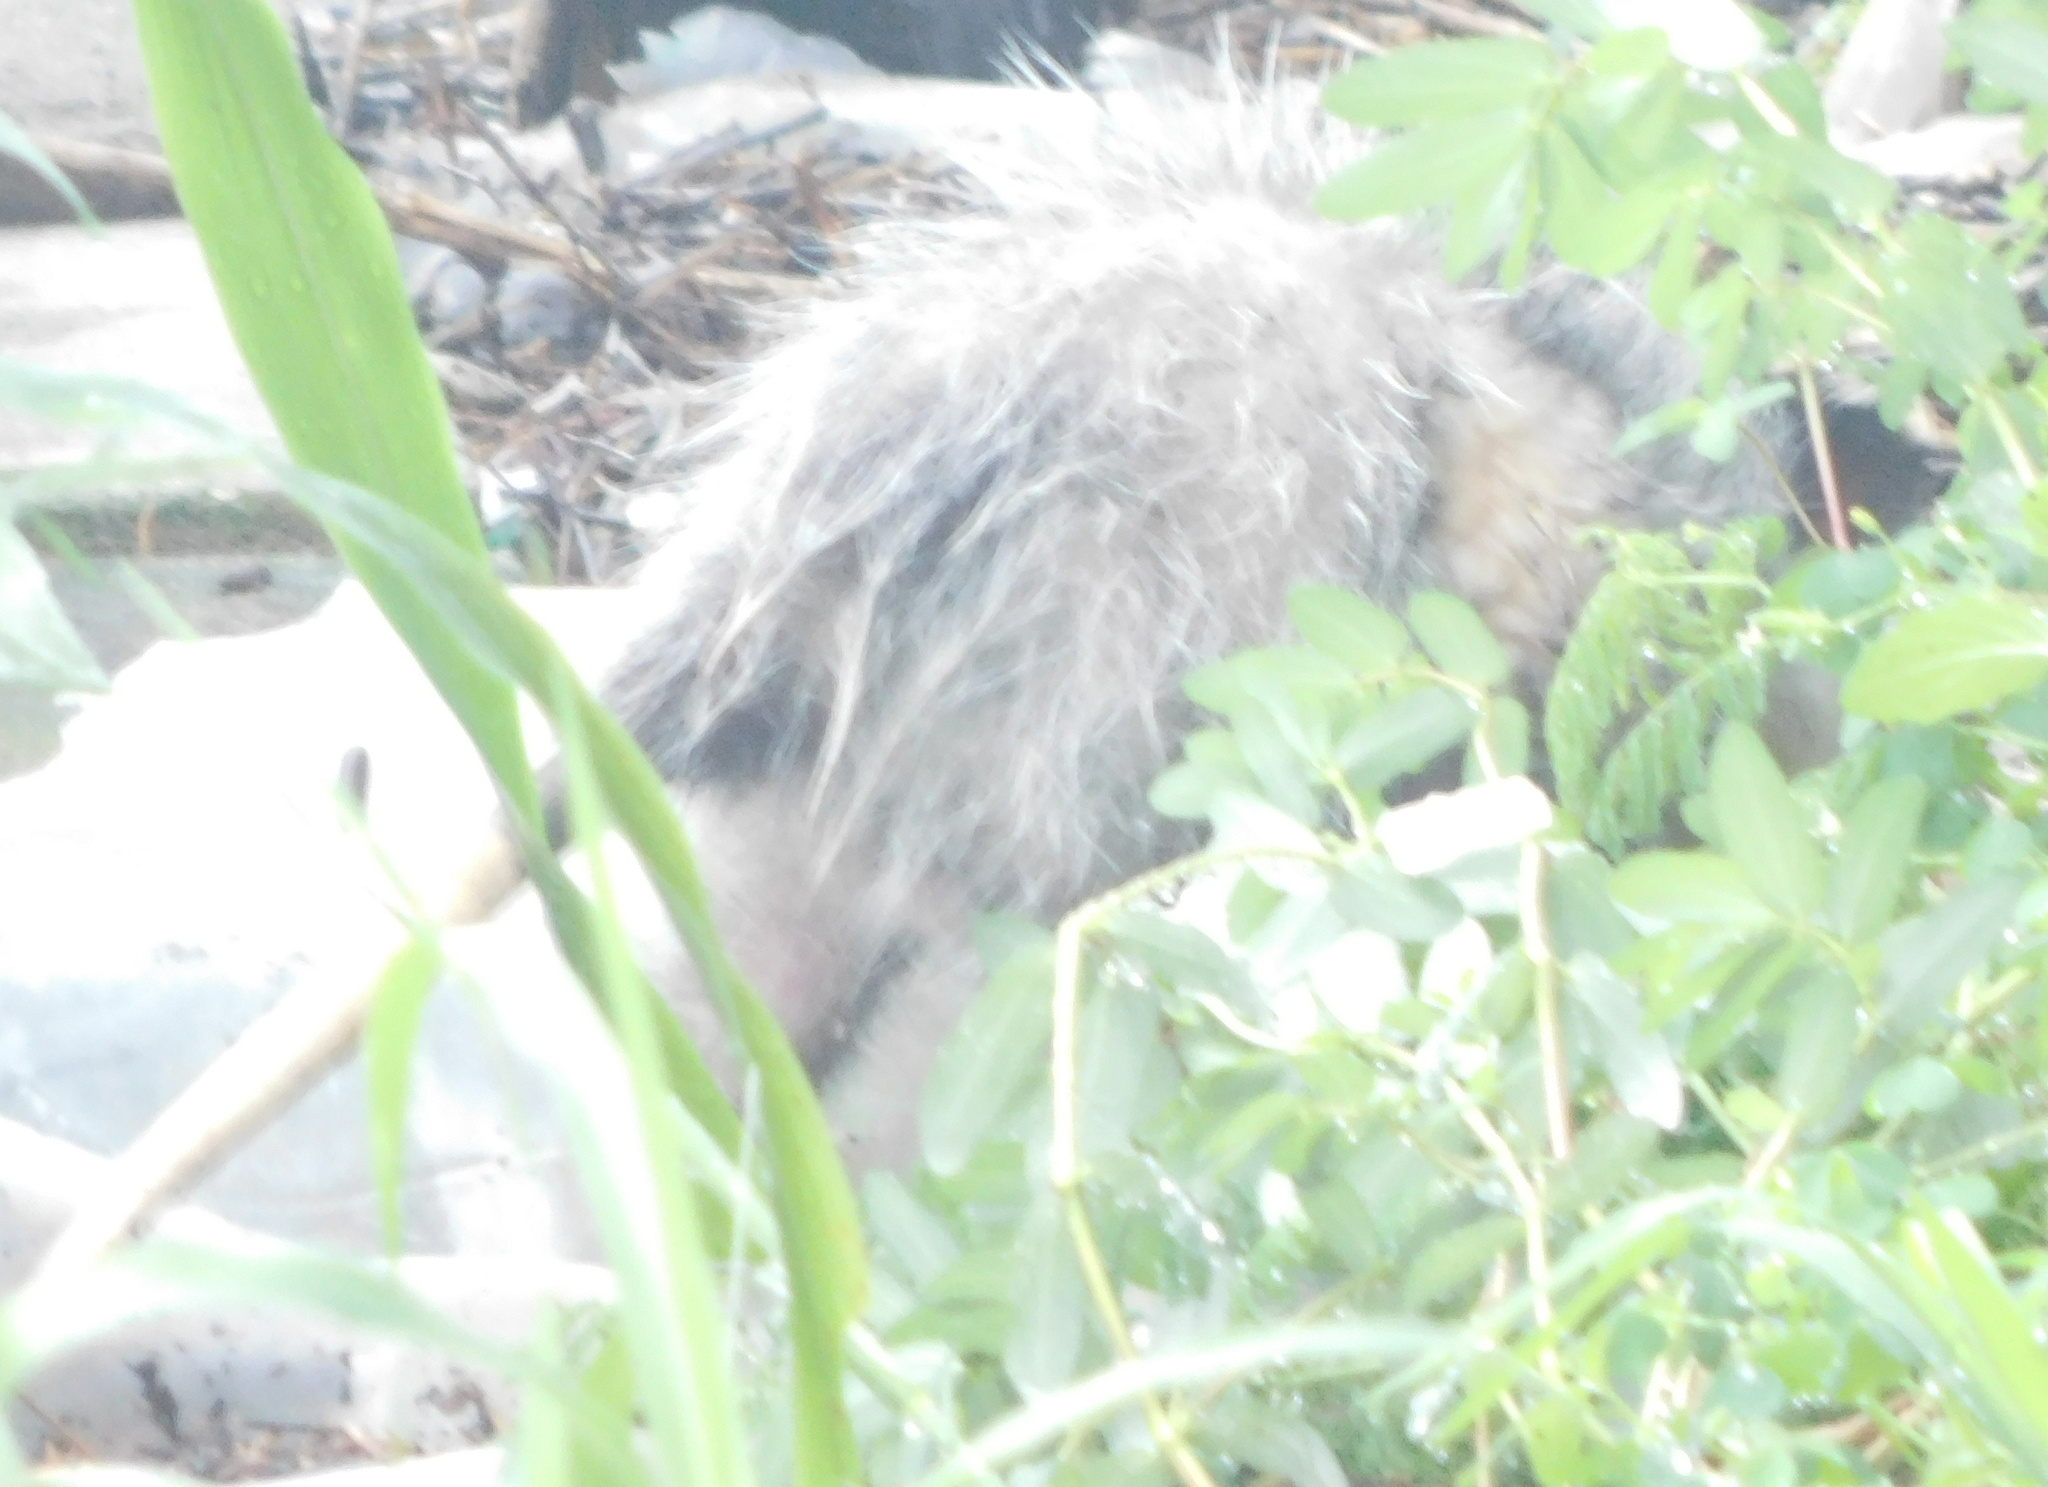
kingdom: Animalia
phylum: Chordata
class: Mammalia
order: Didelphimorphia
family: Didelphidae
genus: Didelphis
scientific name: Didelphis virginiana
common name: Virginia opossum
